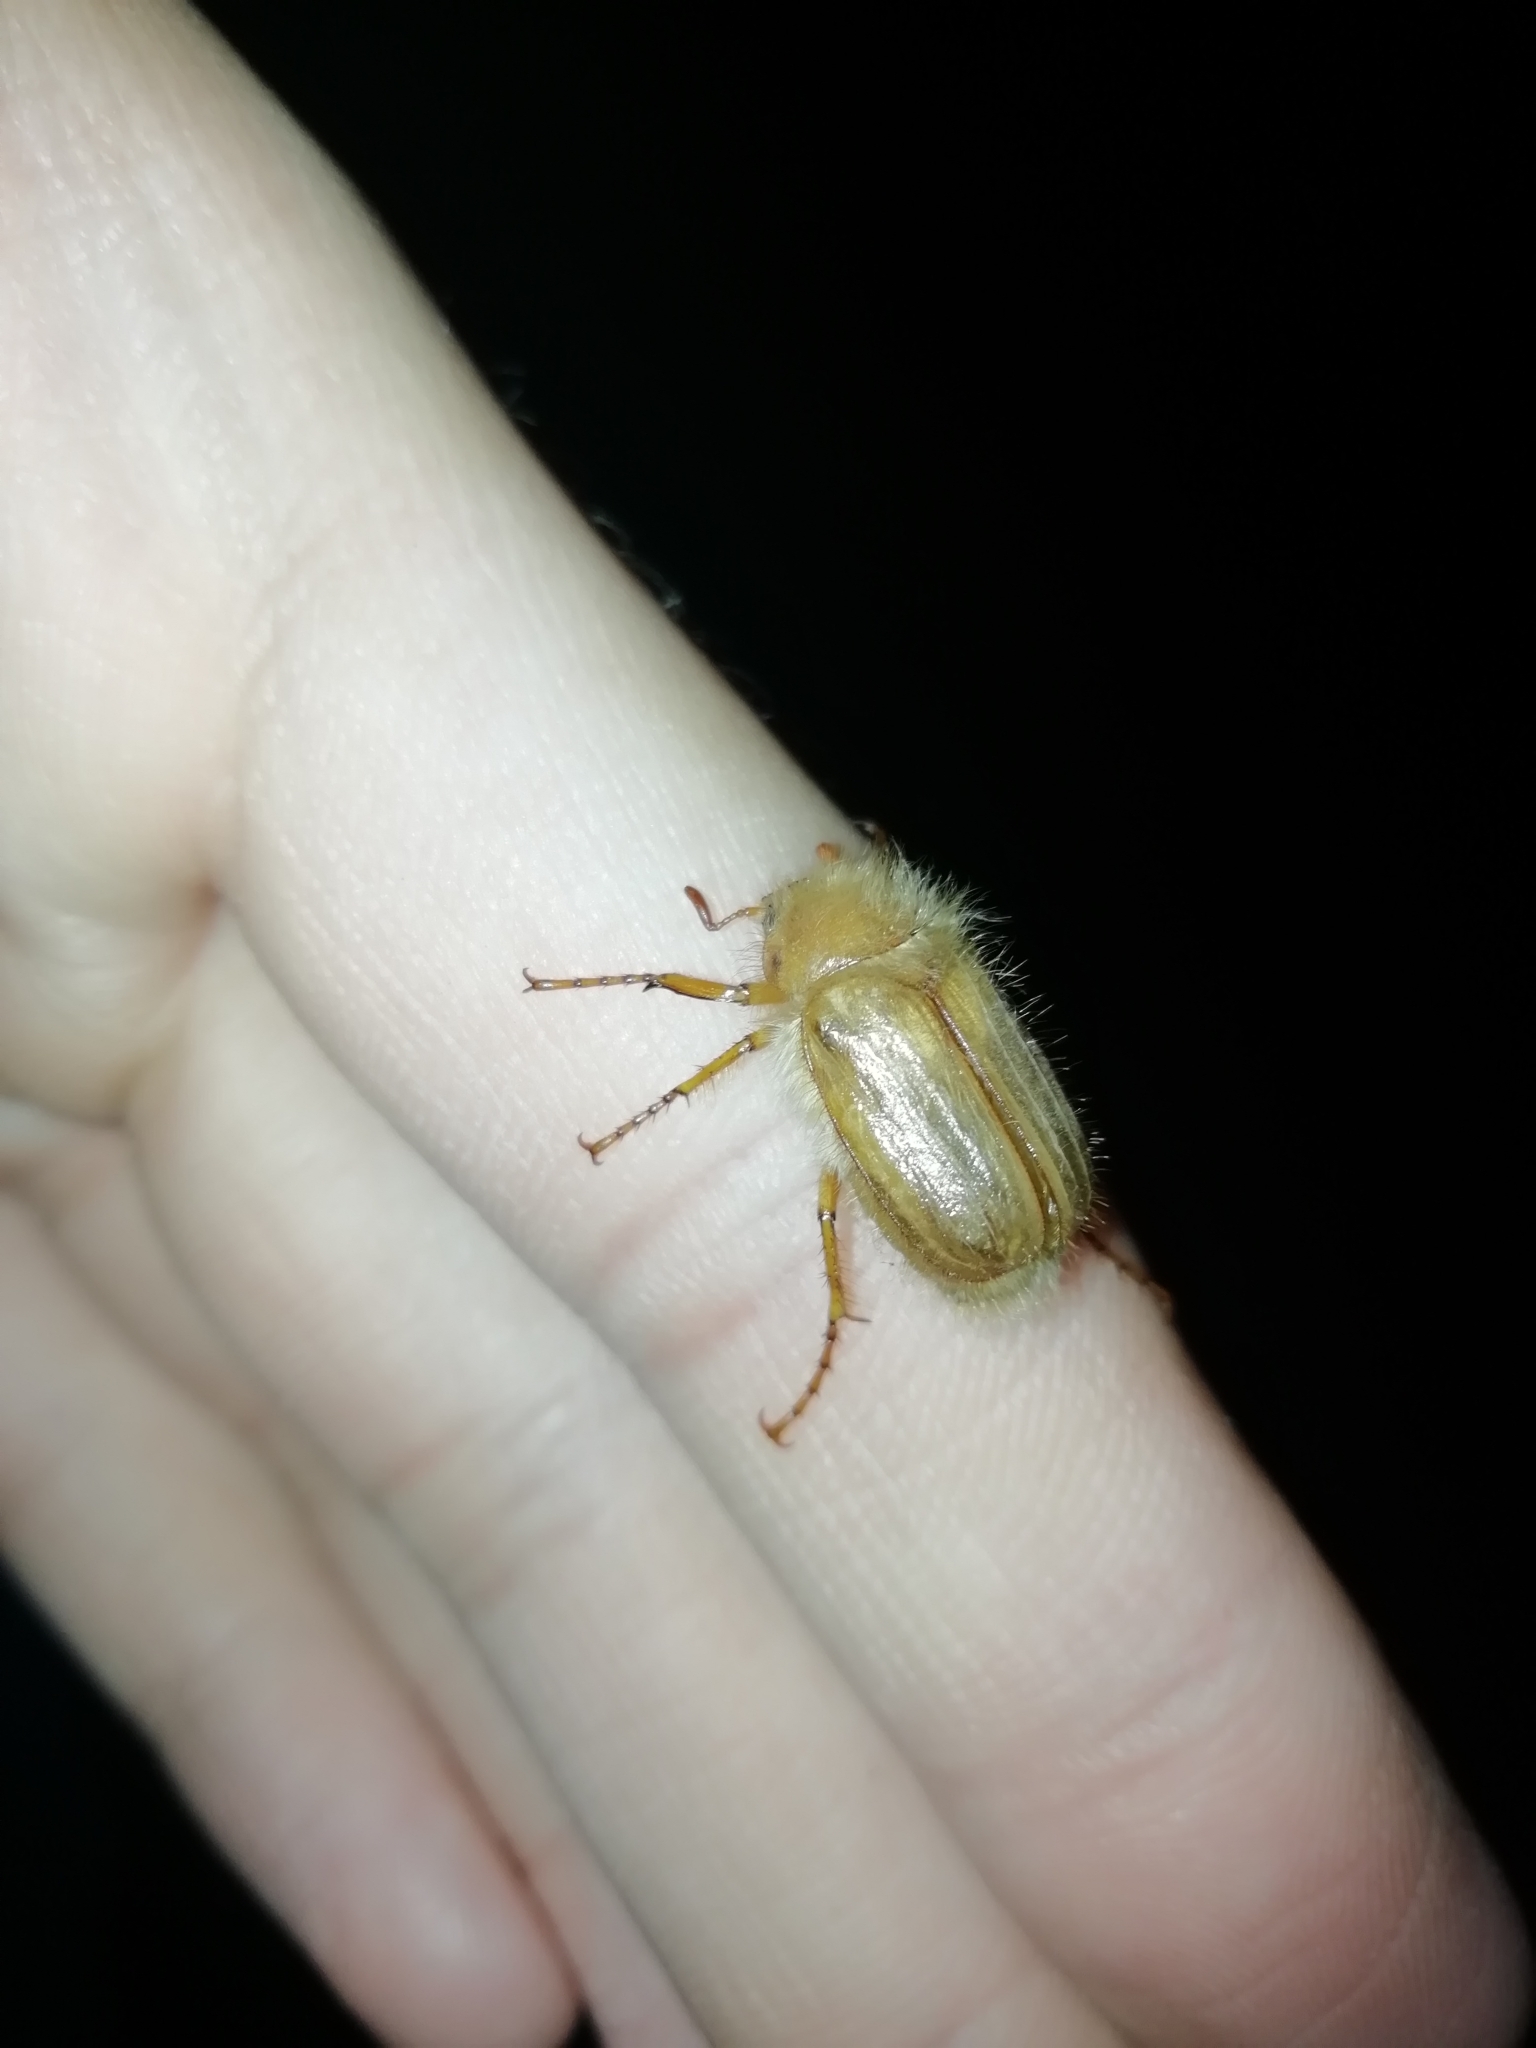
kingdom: Animalia
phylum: Arthropoda
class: Insecta
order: Coleoptera
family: Scarabaeidae
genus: Amphimallon
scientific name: Amphimallon solstitiale
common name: Summer chafer
